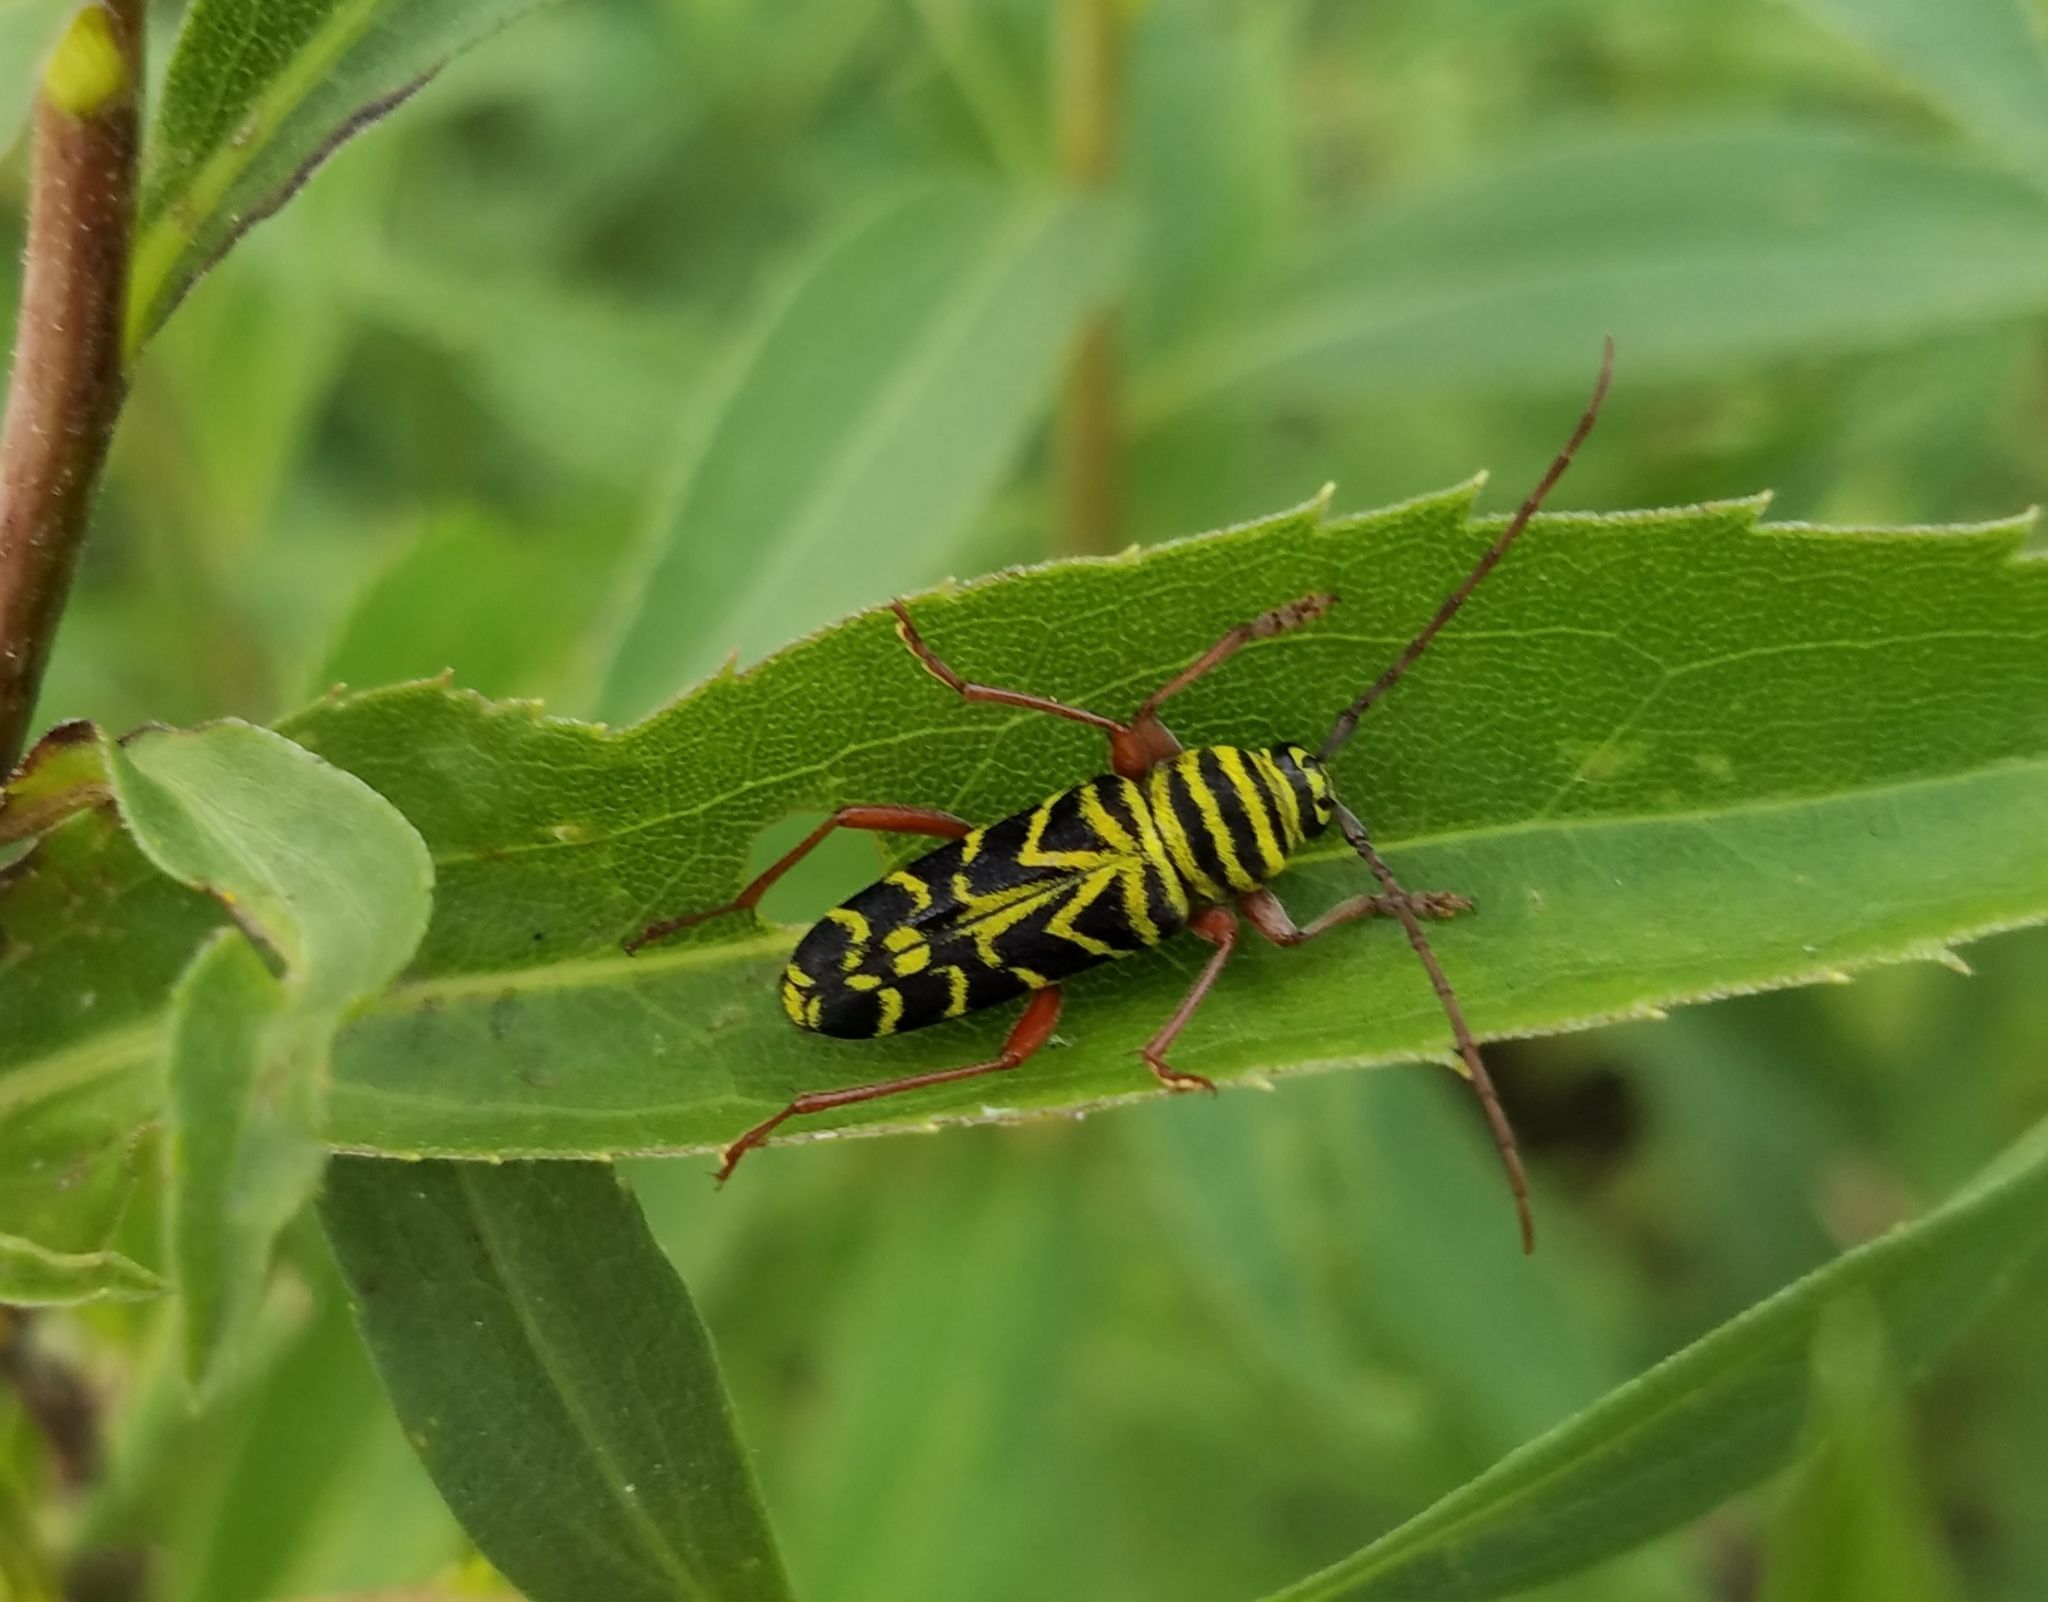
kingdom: Animalia
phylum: Arthropoda
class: Insecta
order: Coleoptera
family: Cerambycidae
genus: Megacyllene
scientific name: Megacyllene robiniae
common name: Locust borer
